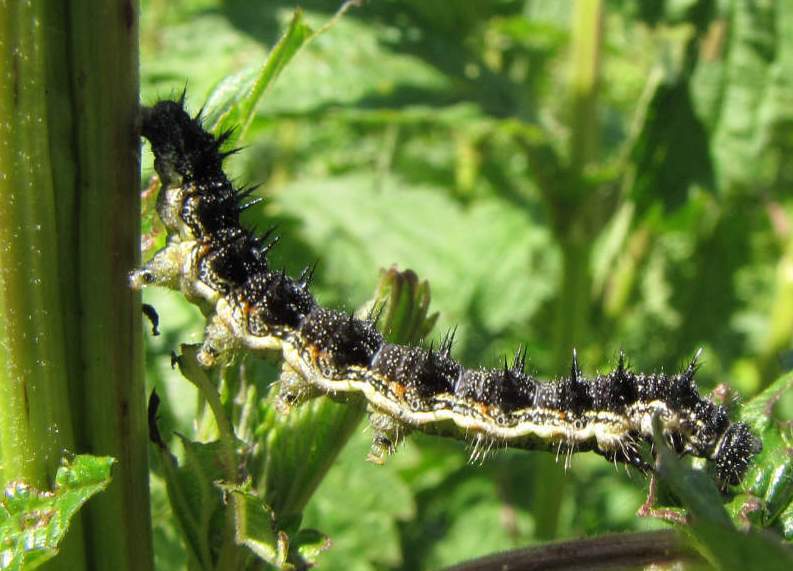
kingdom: Animalia
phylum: Arthropoda
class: Insecta
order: Lepidoptera
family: Nymphalidae
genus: Aglais
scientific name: Aglais milberti
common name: Milbert's tortoiseshell
